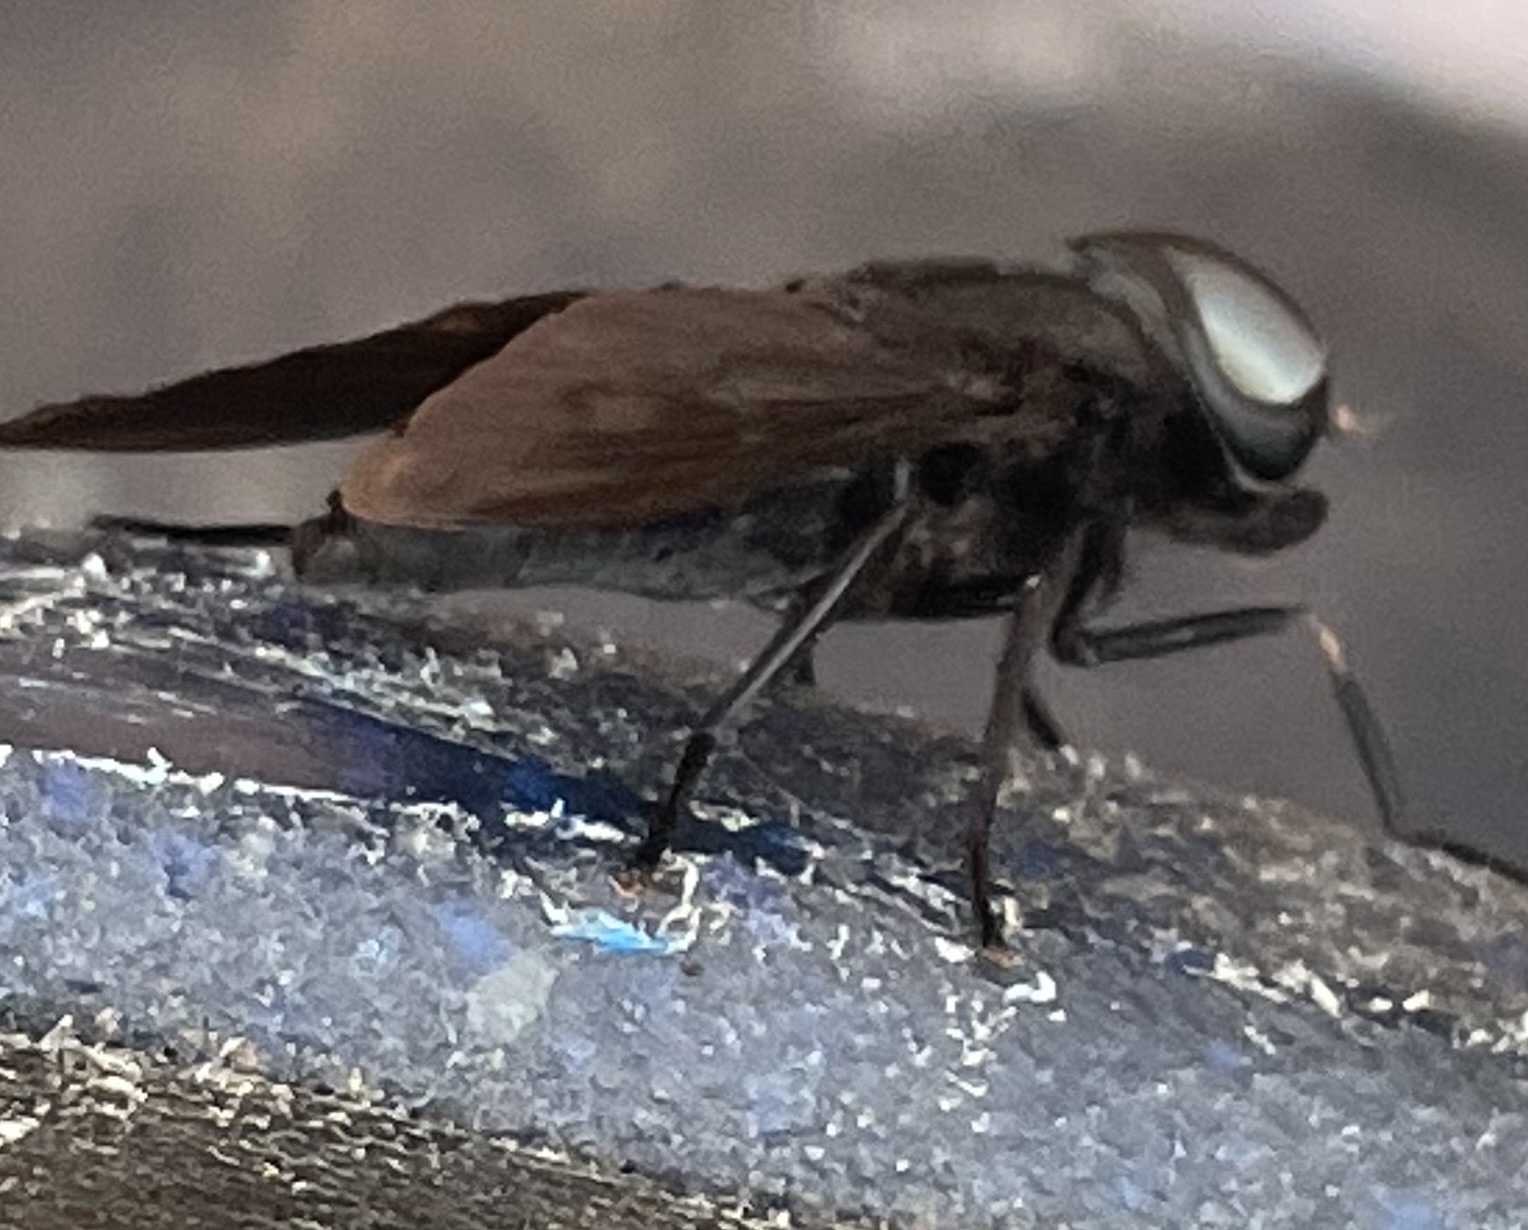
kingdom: Animalia
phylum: Arthropoda
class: Insecta
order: Diptera
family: Tabanidae
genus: Tabanus
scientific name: Tabanus atratus
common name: Black horse fly
